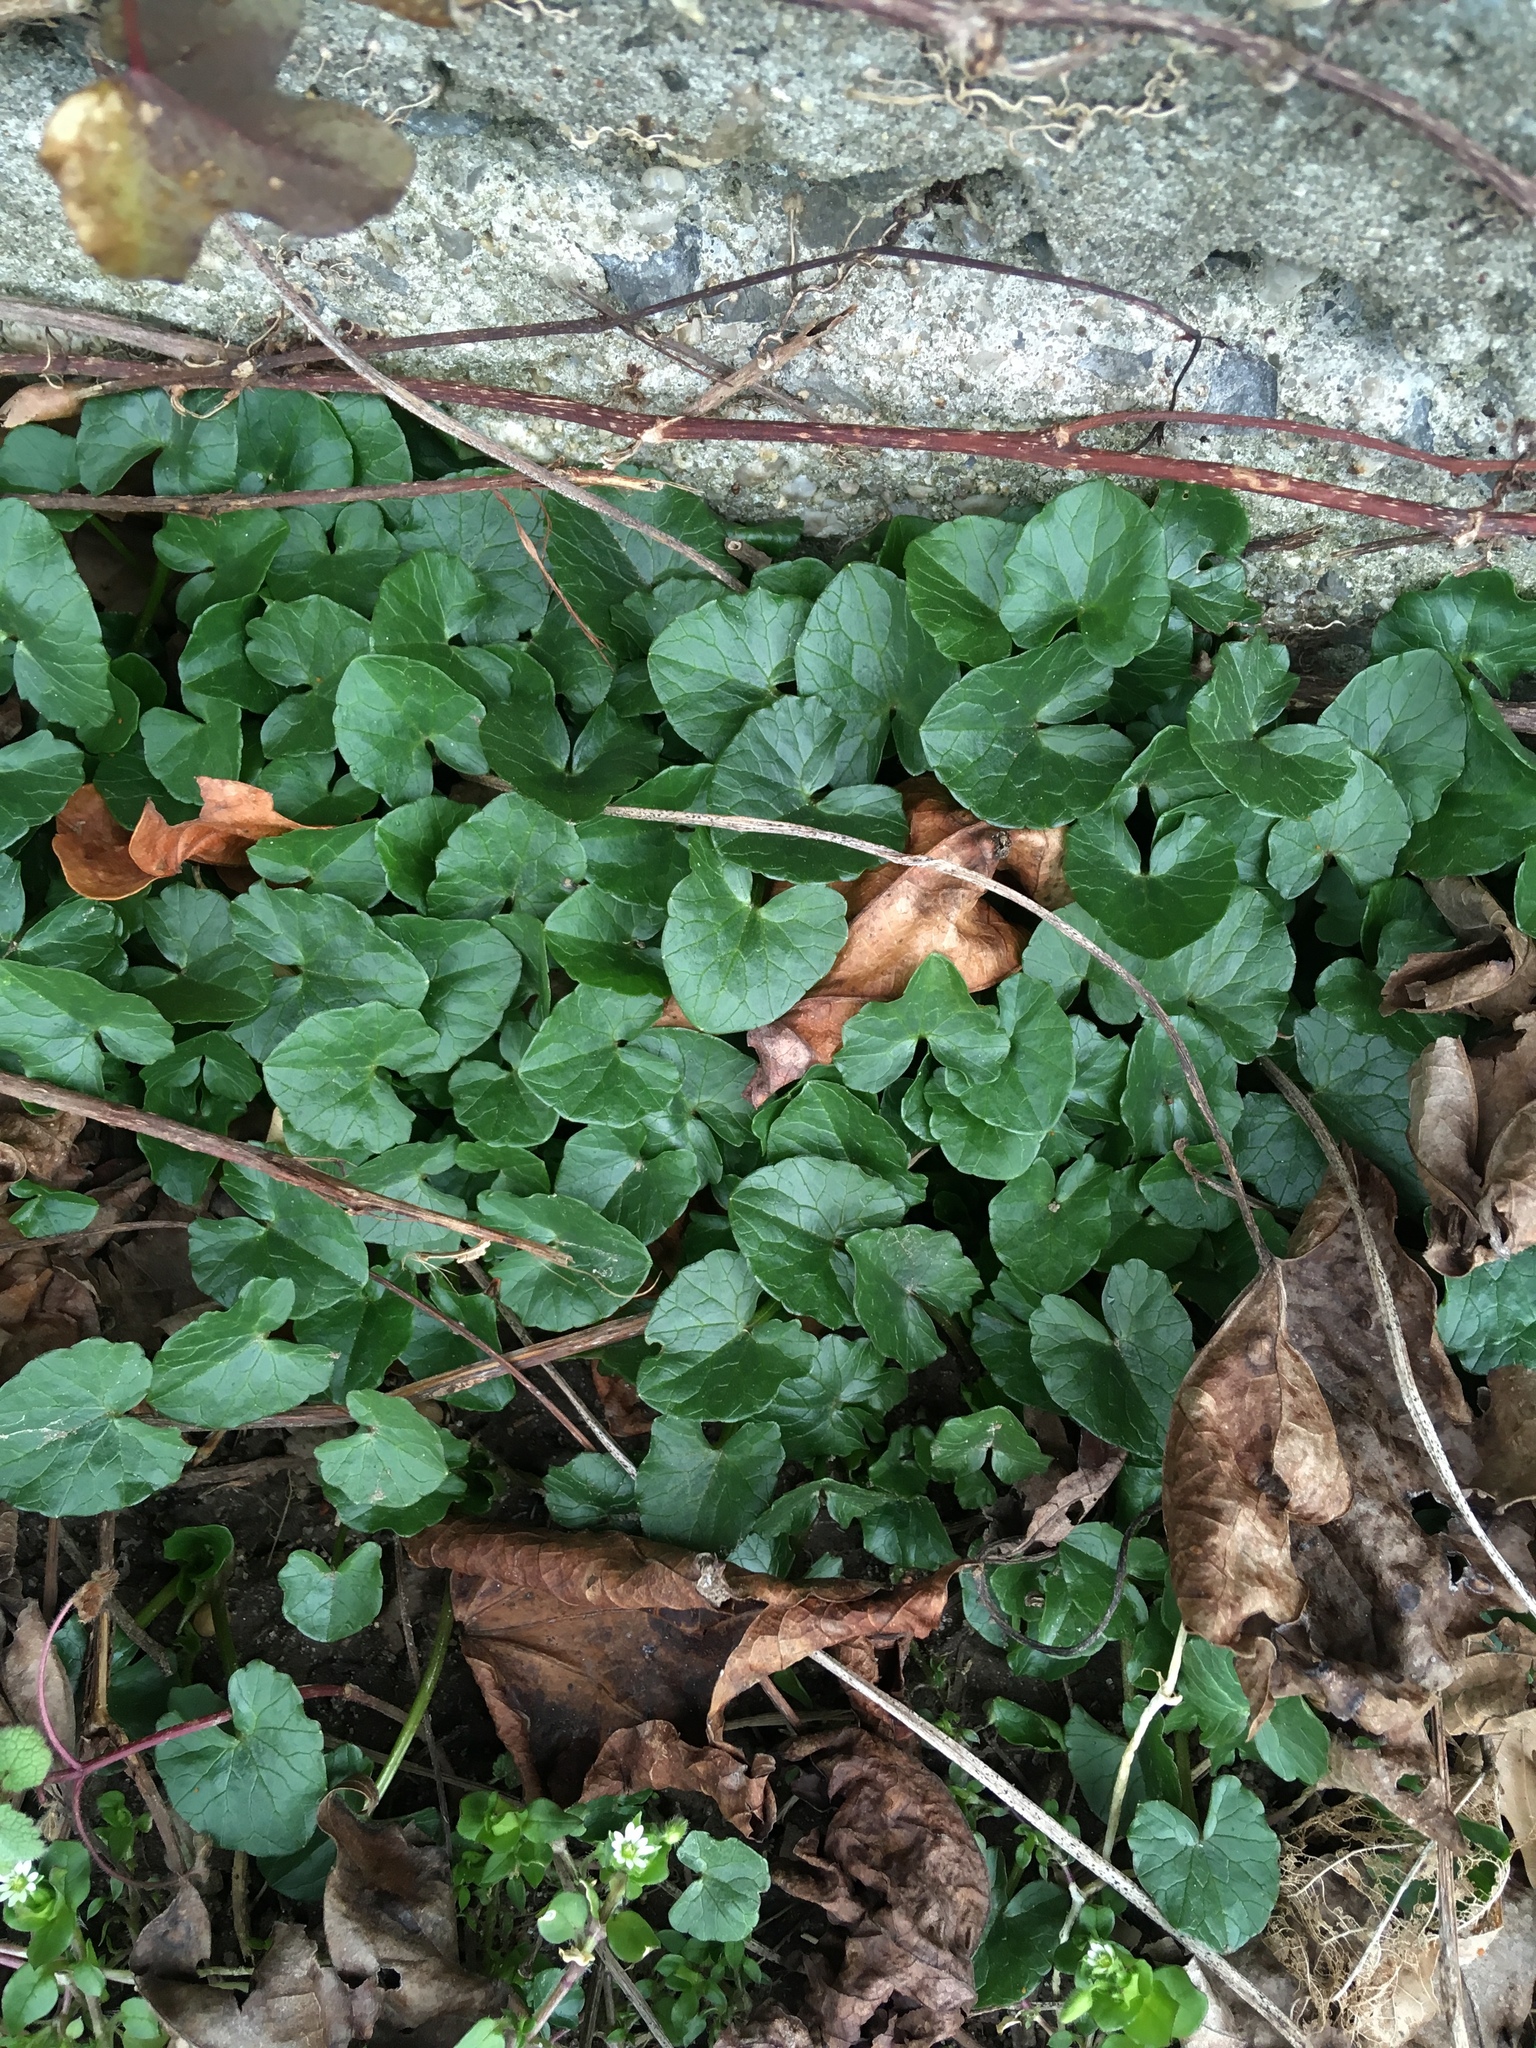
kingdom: Plantae
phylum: Tracheophyta
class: Magnoliopsida
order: Ranunculales
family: Ranunculaceae
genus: Ficaria
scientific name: Ficaria verna
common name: Lesser celandine
